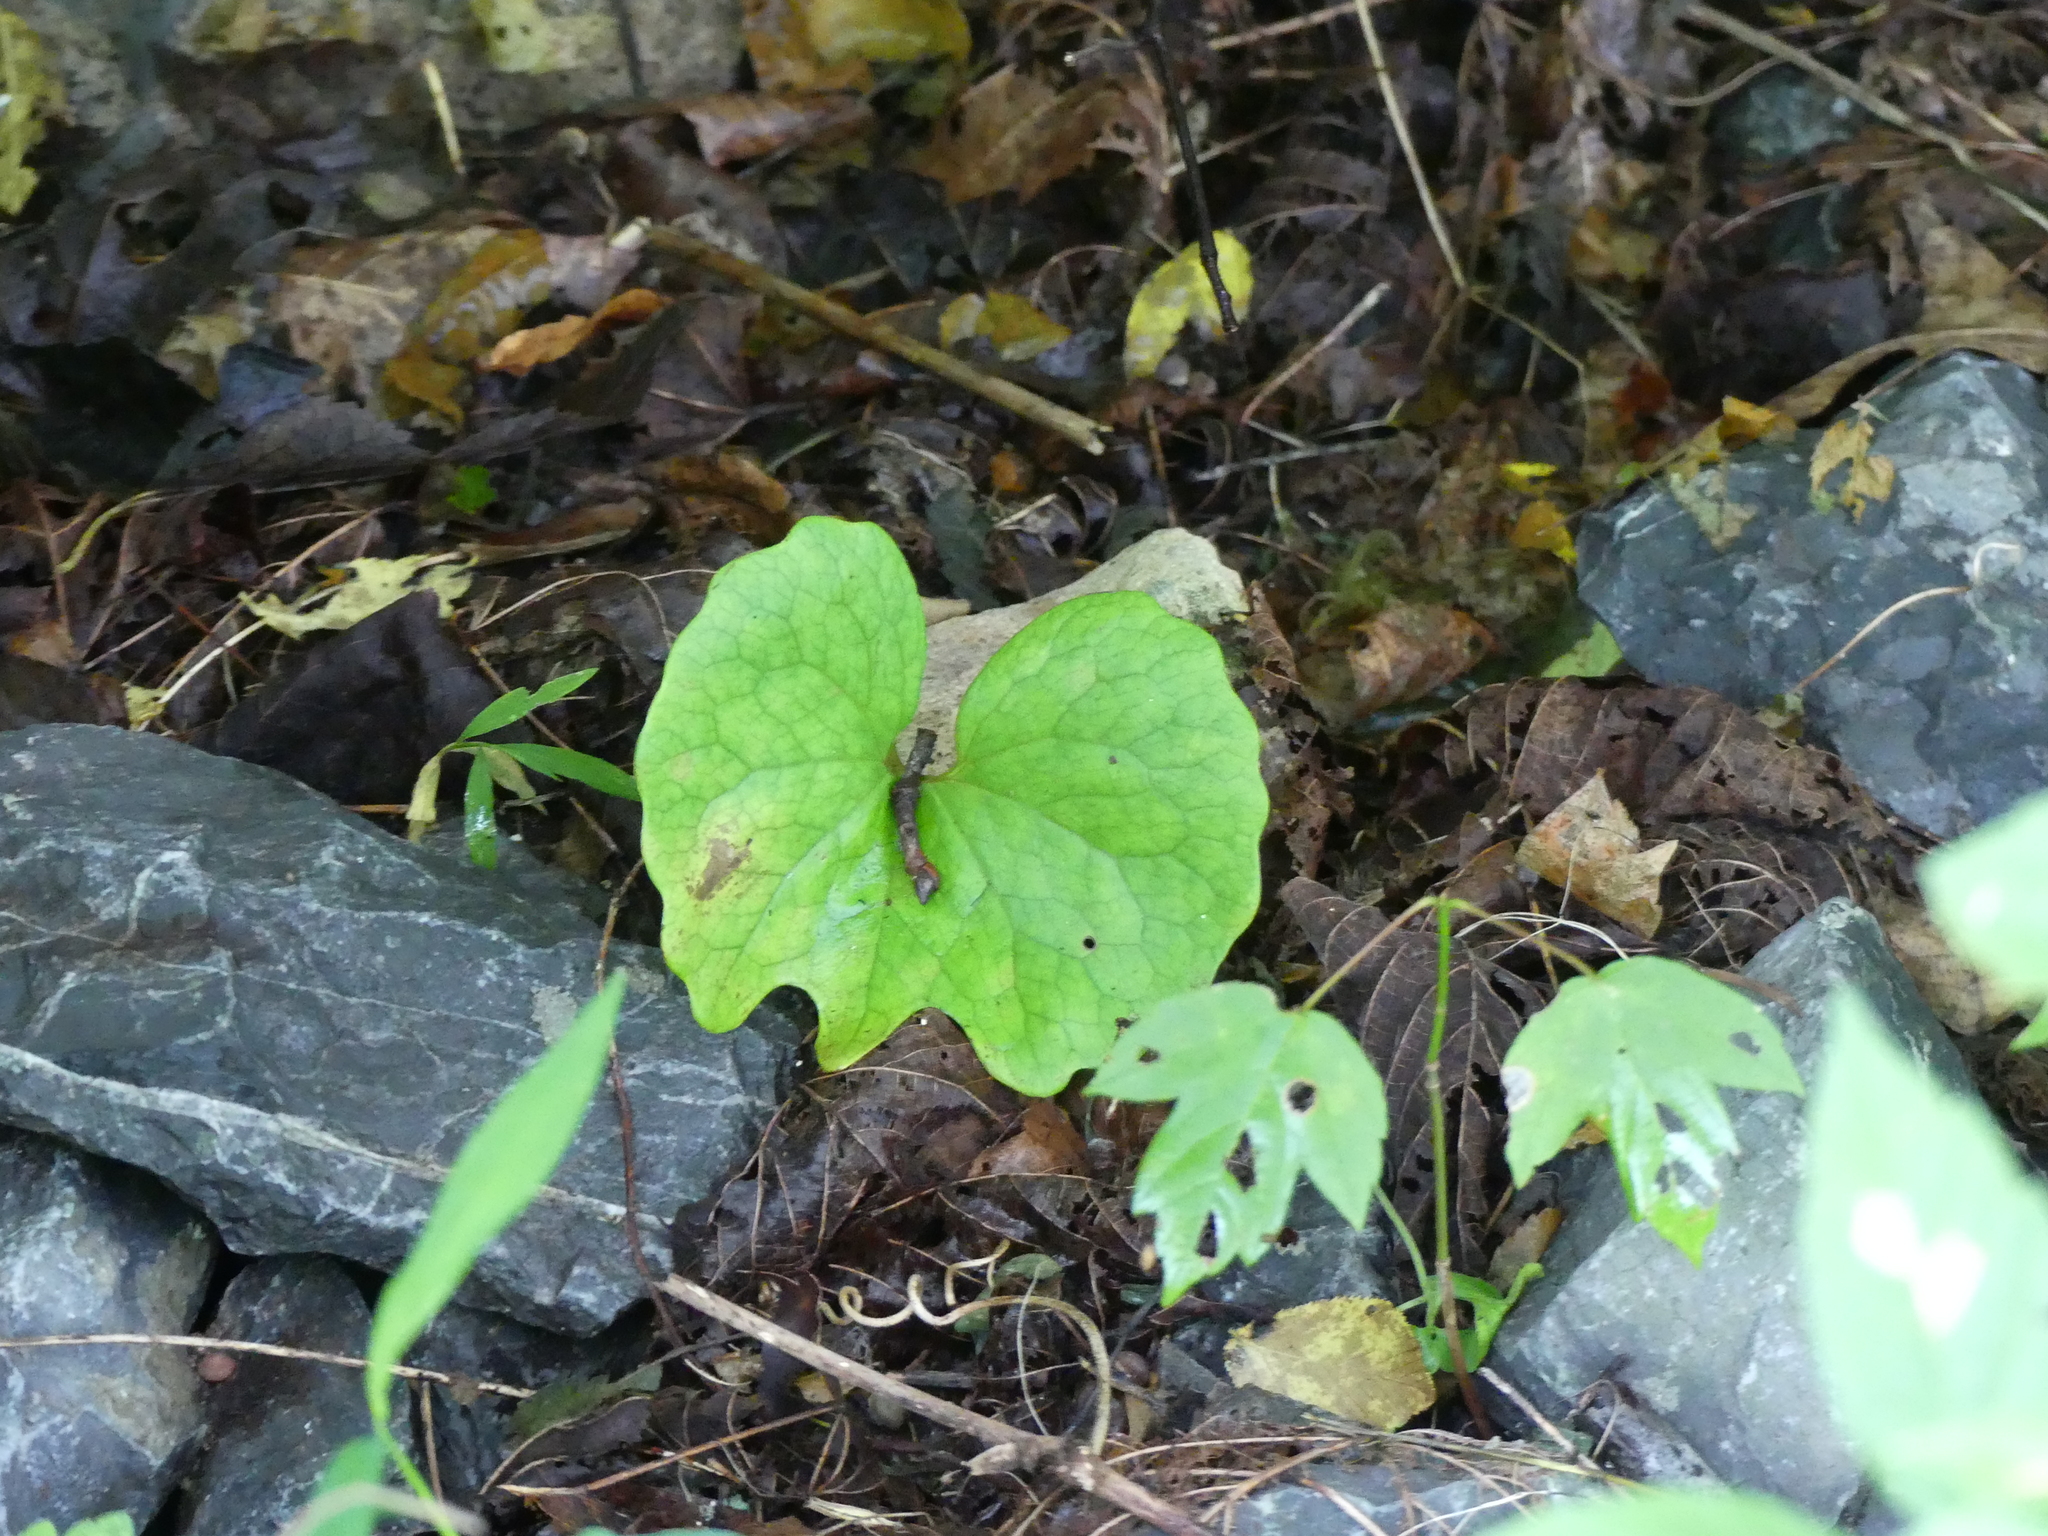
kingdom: Plantae
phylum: Tracheophyta
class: Magnoliopsida
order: Ranunculales
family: Papaveraceae
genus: Sanguinaria
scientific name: Sanguinaria canadensis
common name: Bloodroot
